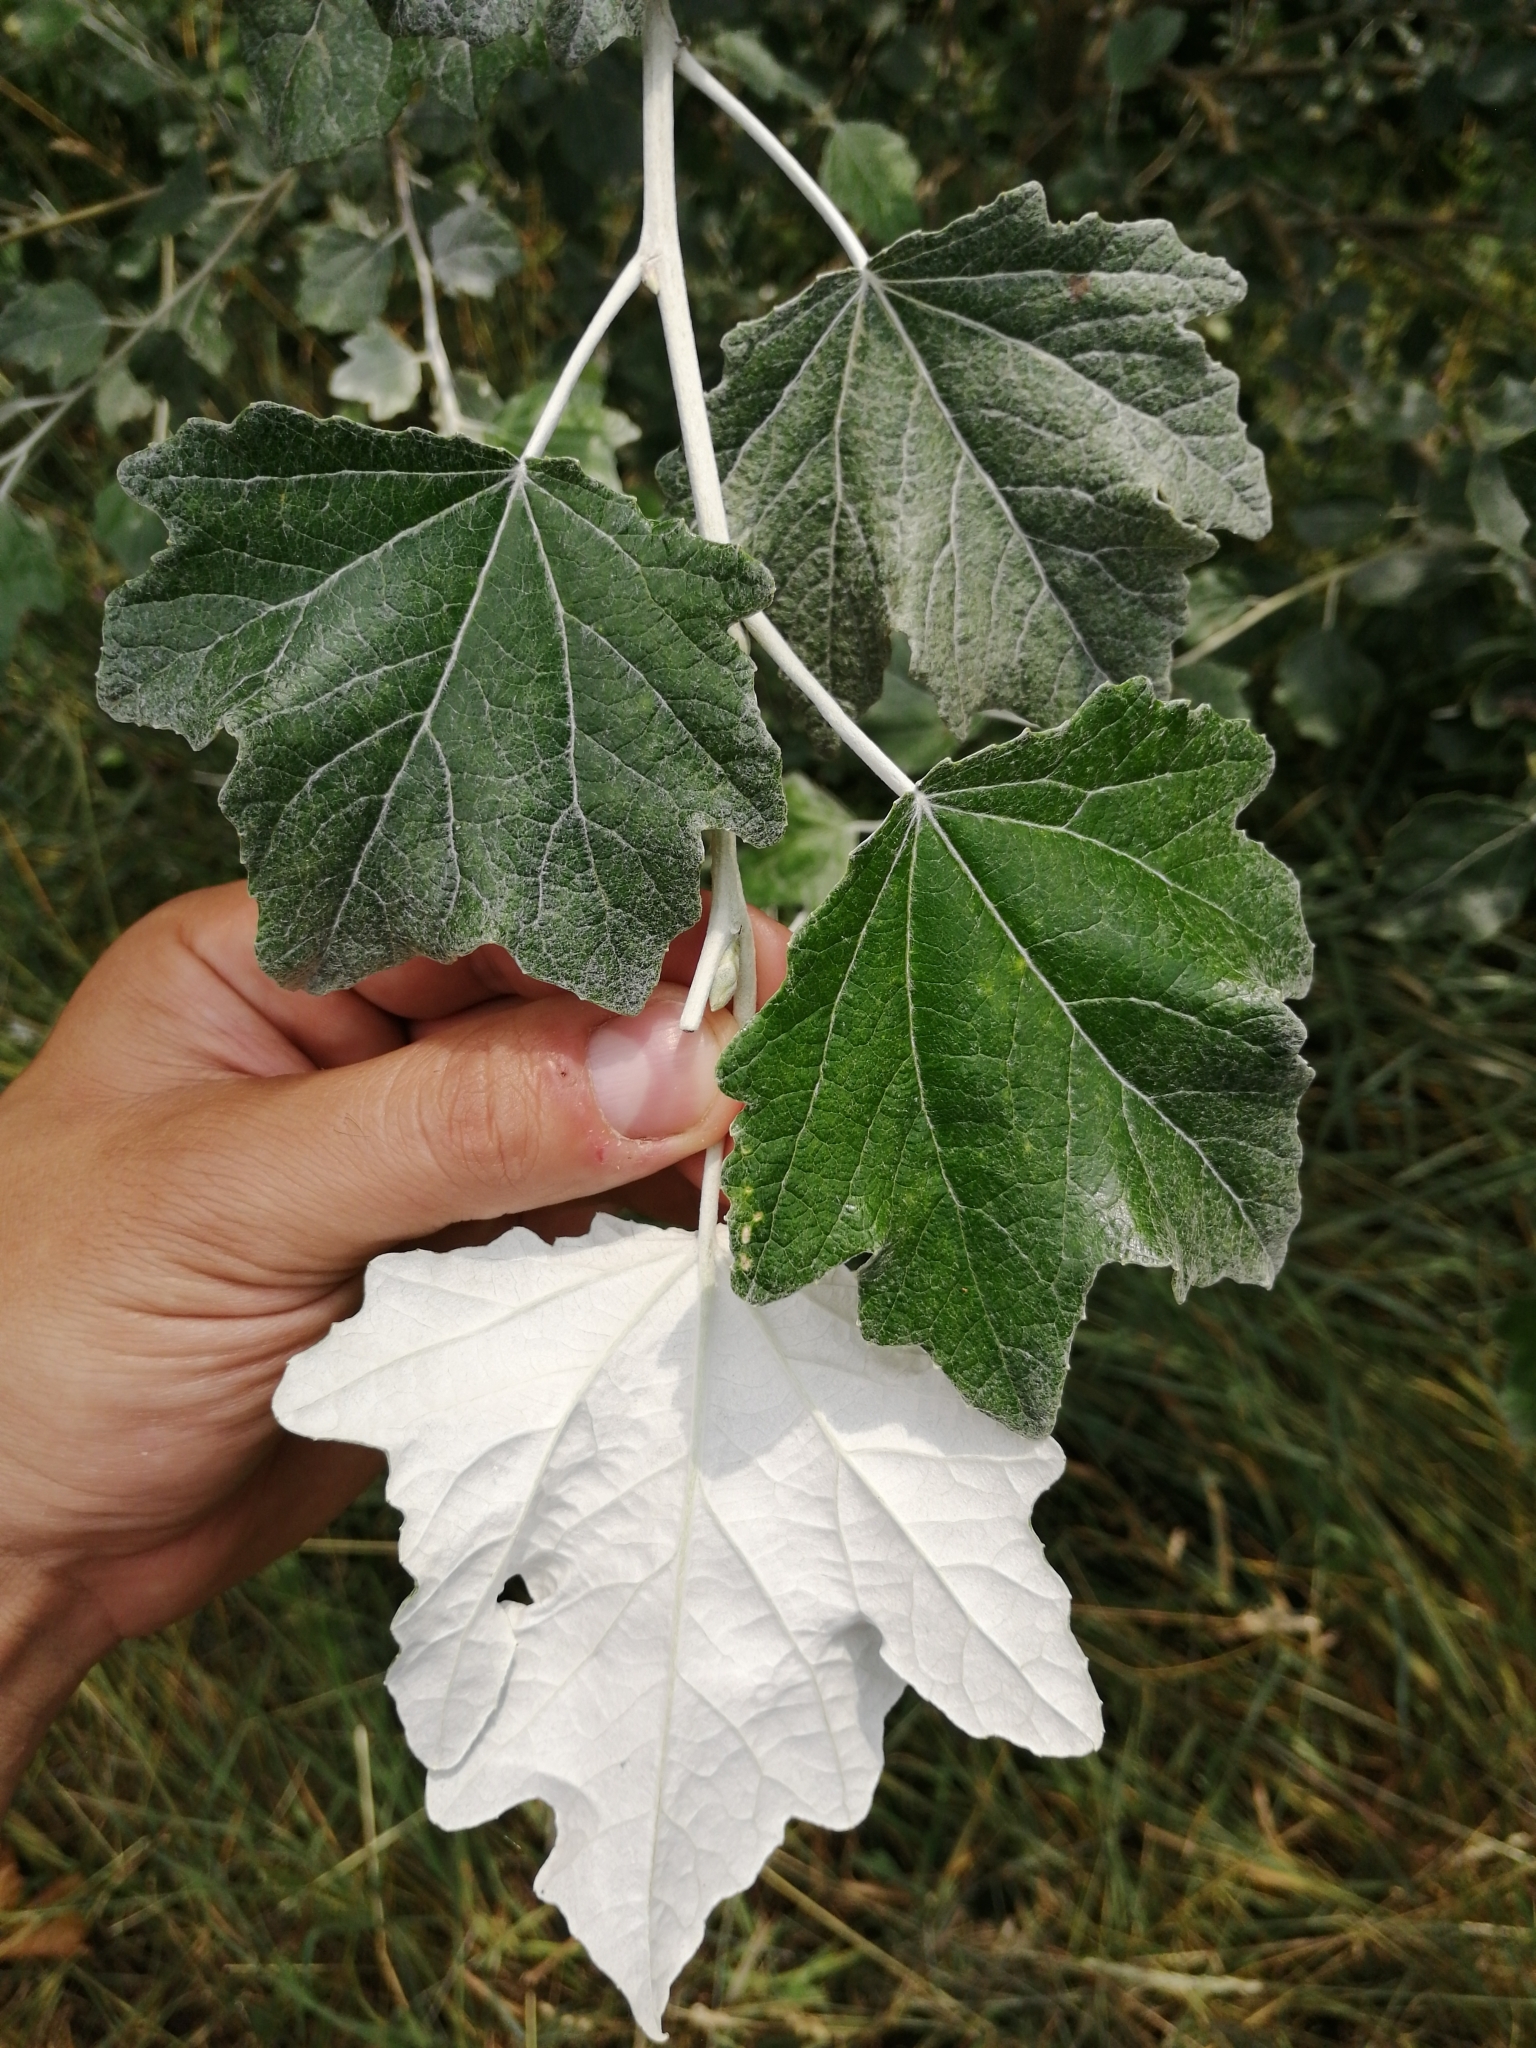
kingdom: Plantae
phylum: Tracheophyta
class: Magnoliopsida
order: Malpighiales
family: Salicaceae
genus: Populus
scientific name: Populus alba
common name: White poplar
